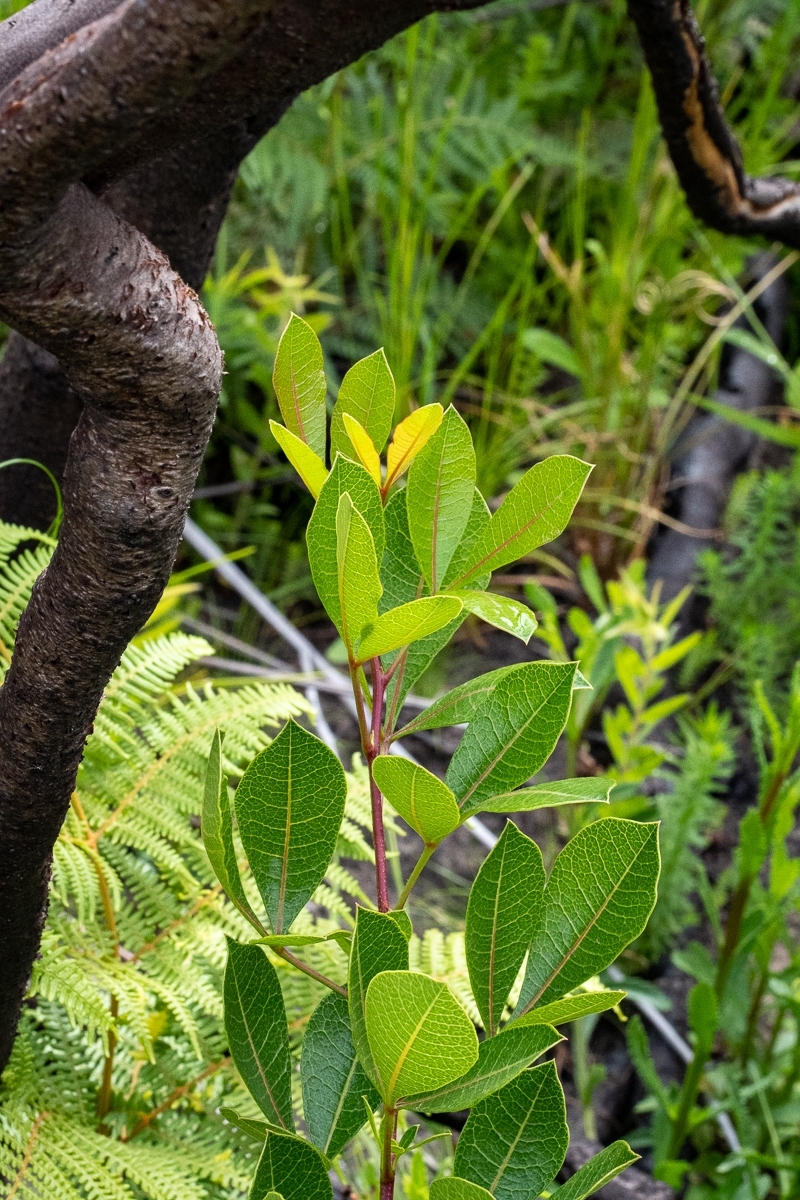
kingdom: Plantae
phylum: Tracheophyta
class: Magnoliopsida
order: Sapindales
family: Anacardiaceae
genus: Searsia
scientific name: Searsia laevigata
